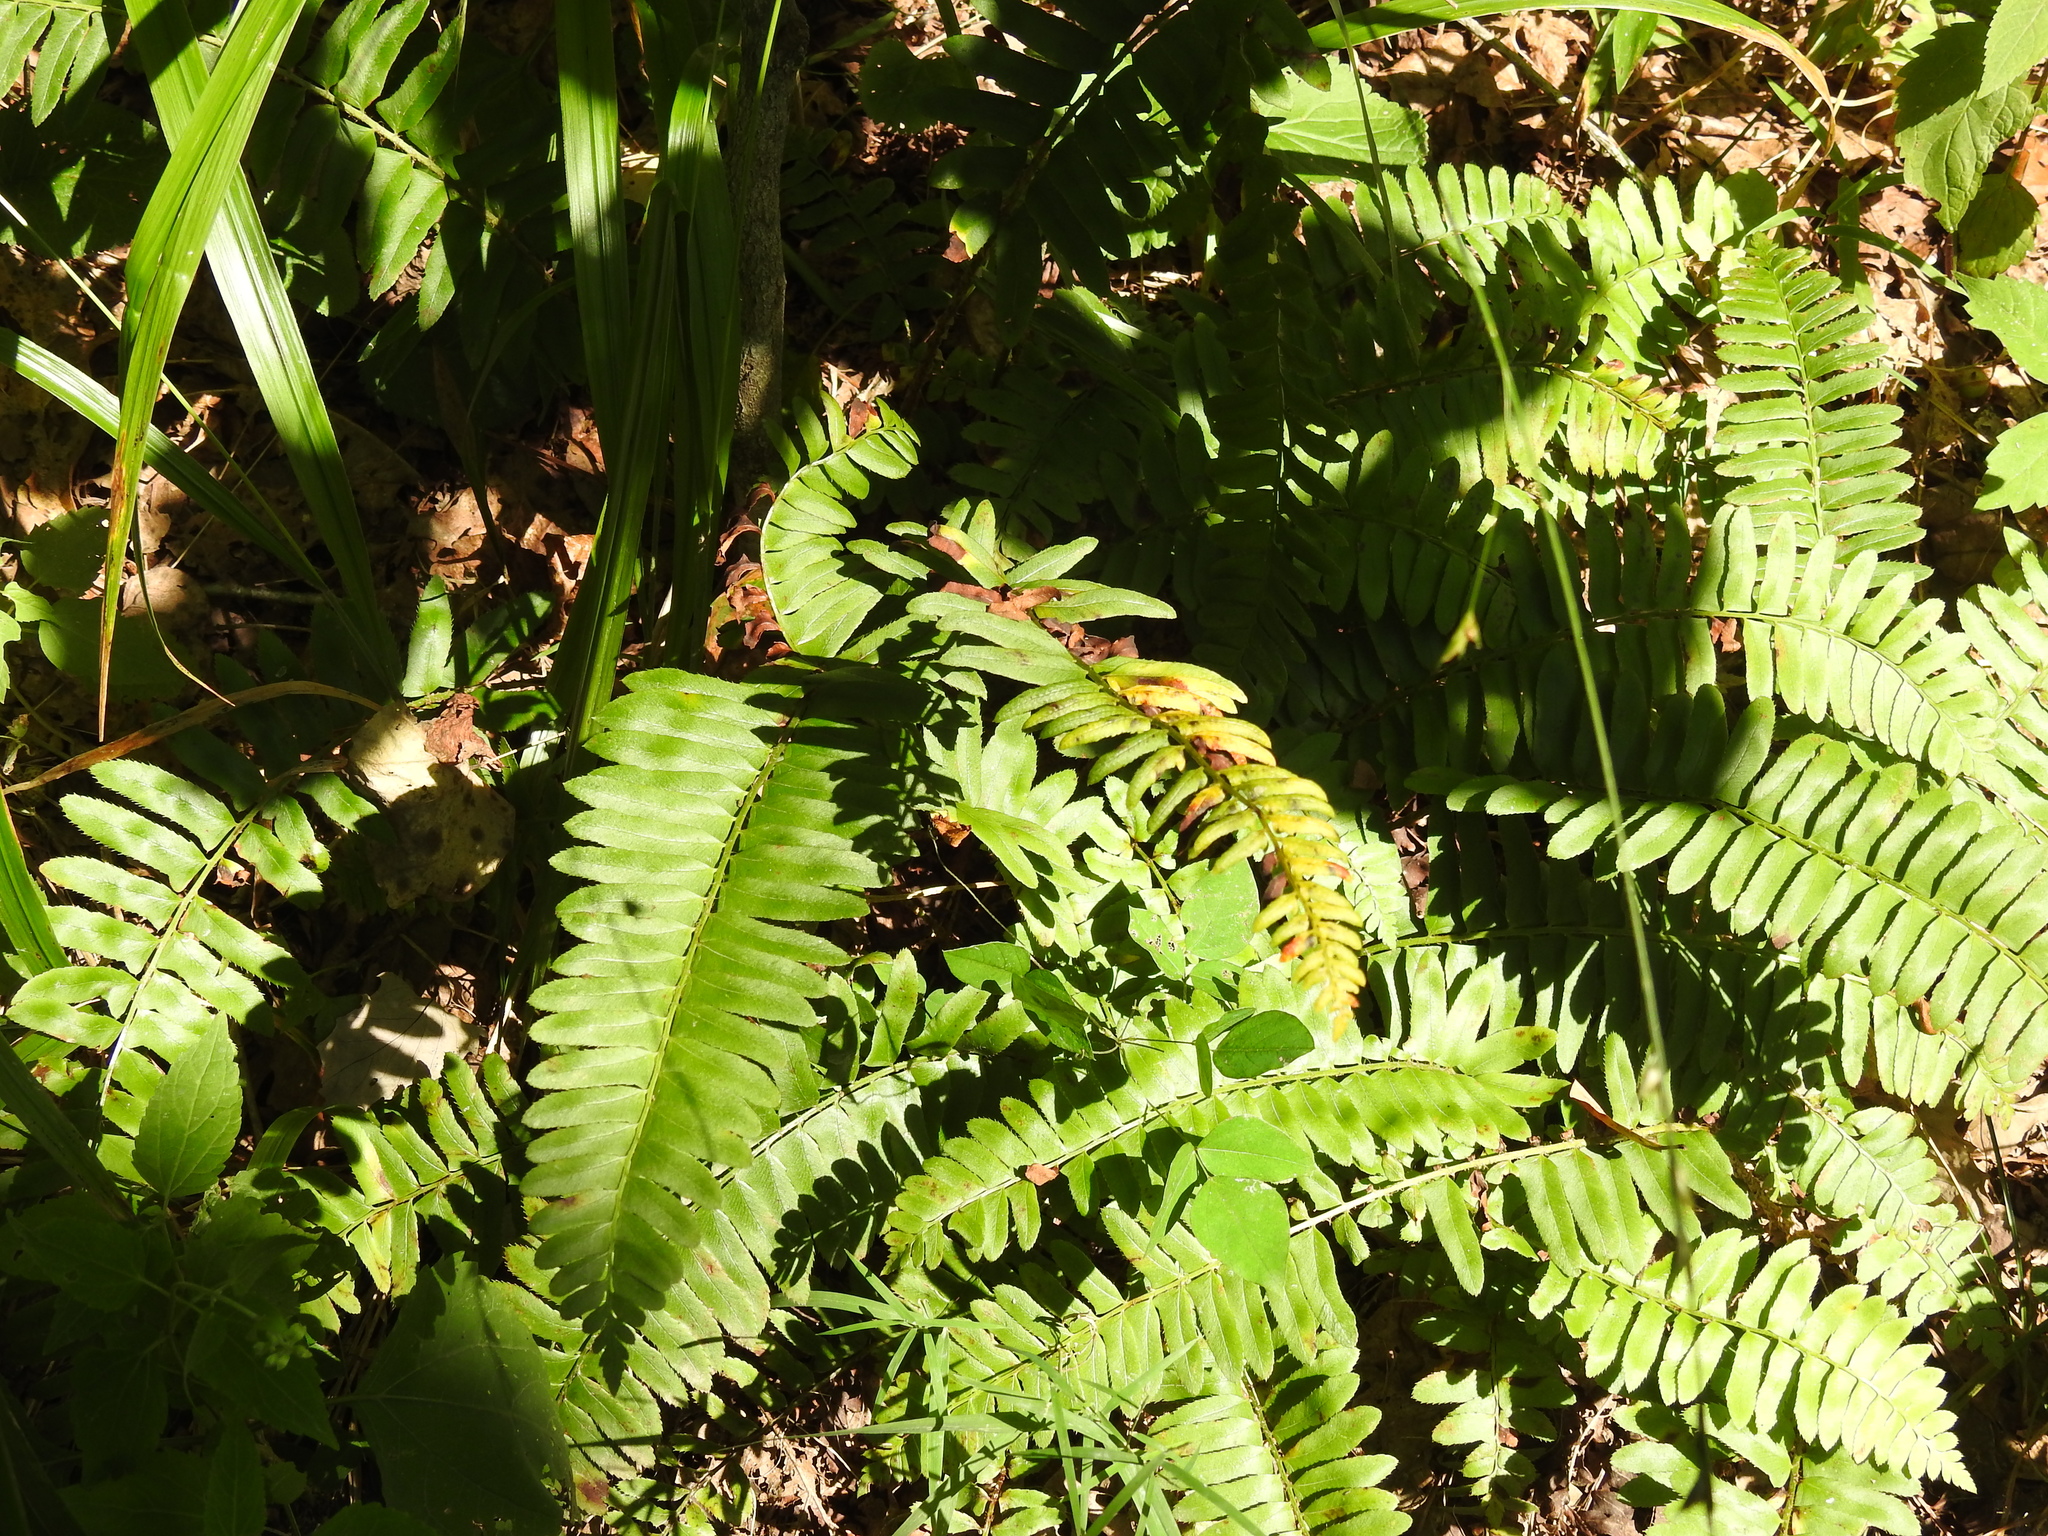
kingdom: Plantae
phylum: Tracheophyta
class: Polypodiopsida
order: Polypodiales
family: Dryopteridaceae
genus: Polystichum
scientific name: Polystichum acrostichoides
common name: Christmas fern
